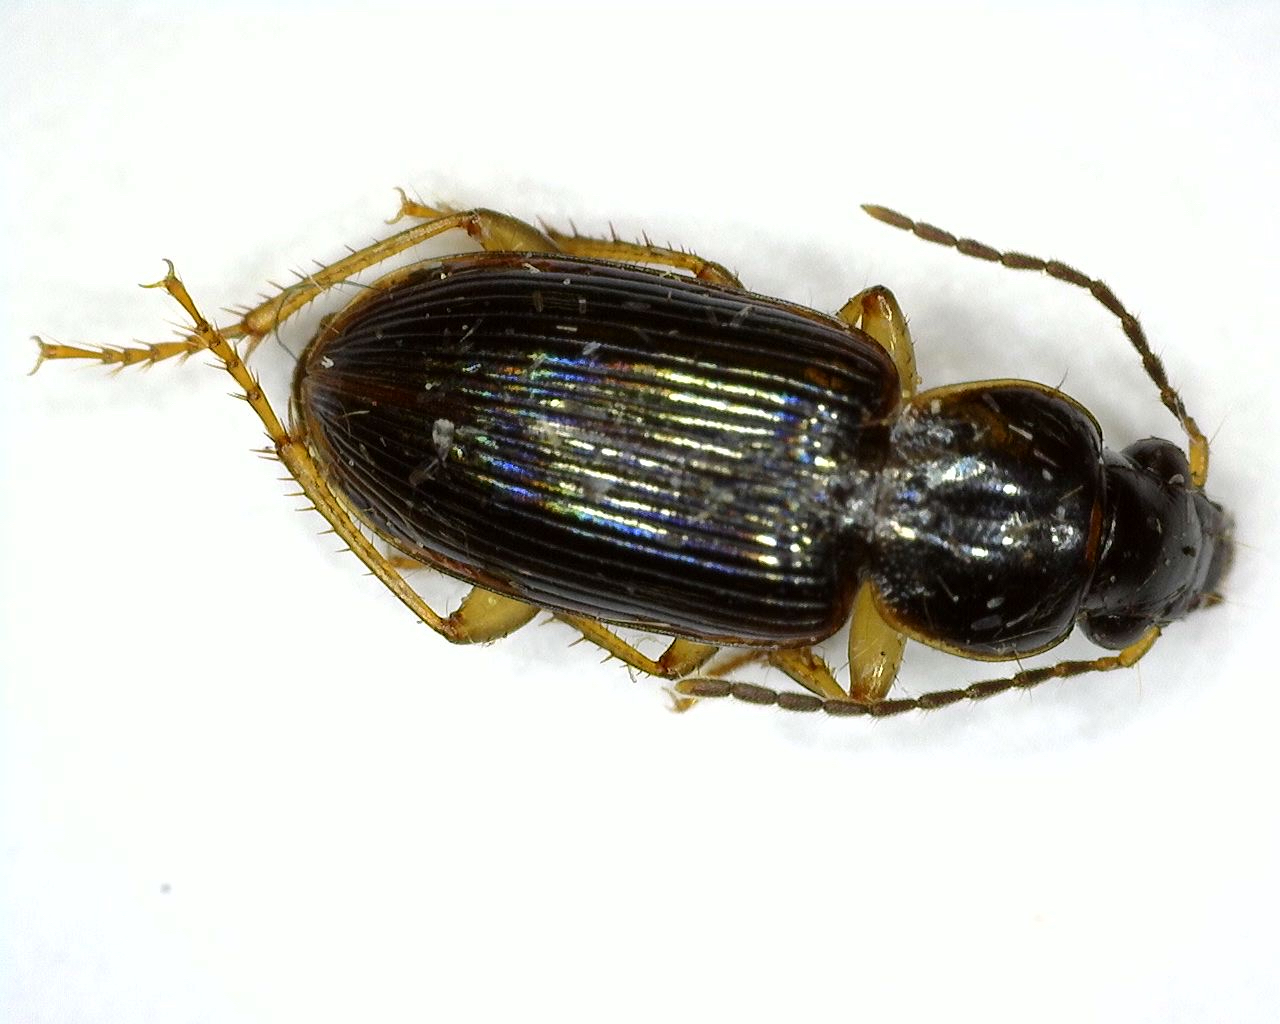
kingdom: Animalia
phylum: Arthropoda
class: Insecta
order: Coleoptera
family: Carabidae
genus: Stenolophus
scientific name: Stenolophus ochropezus
